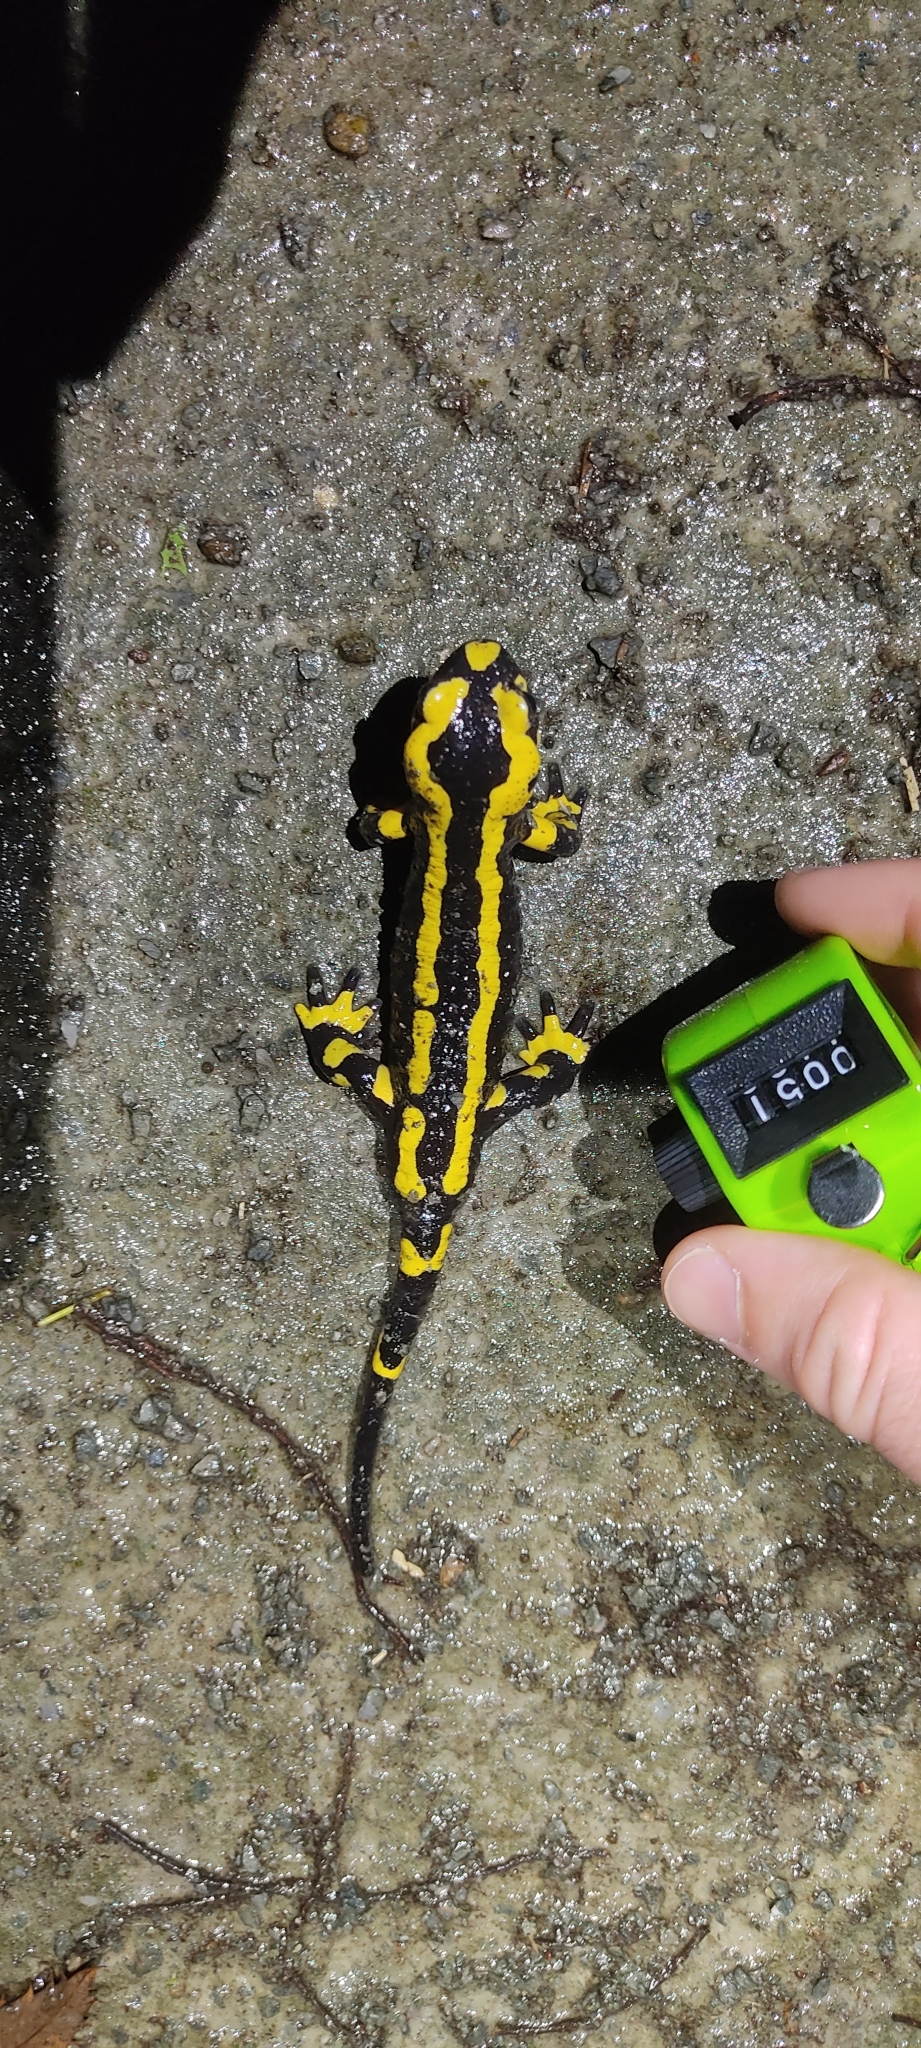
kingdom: Animalia
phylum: Chordata
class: Amphibia
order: Caudata
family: Salamandridae
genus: Salamandra
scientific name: Salamandra salamandra
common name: Fire salamander
